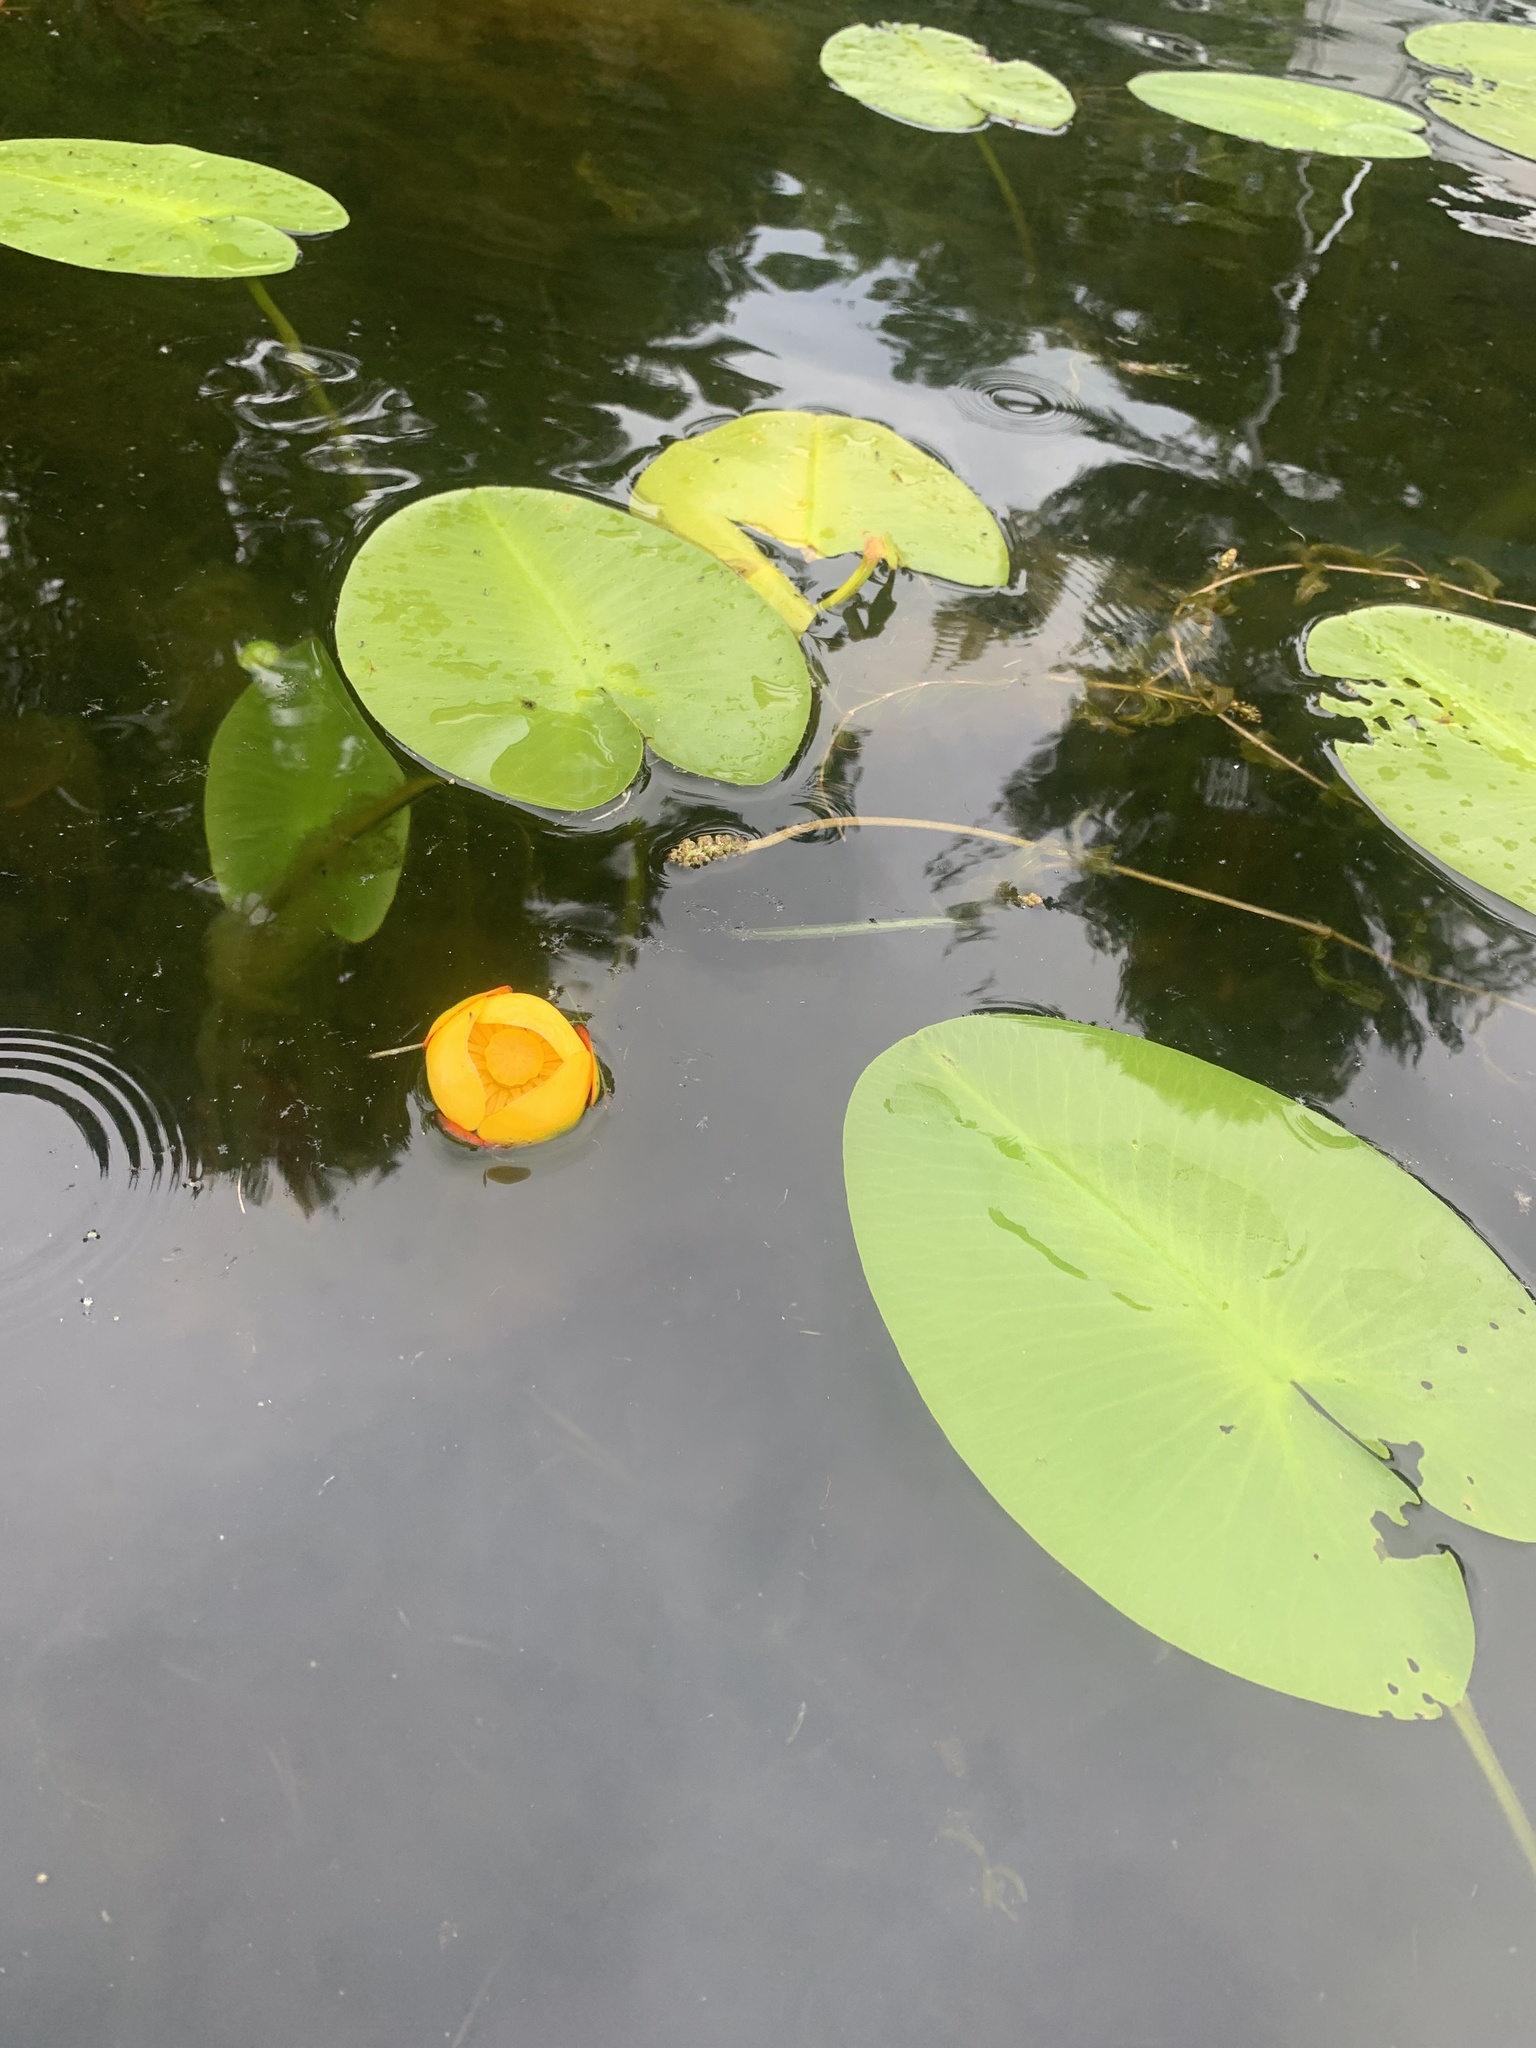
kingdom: Plantae
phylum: Tracheophyta
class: Magnoliopsida
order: Nymphaeales
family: Nymphaeaceae
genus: Nuphar
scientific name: Nuphar variegata
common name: Beaver-root
